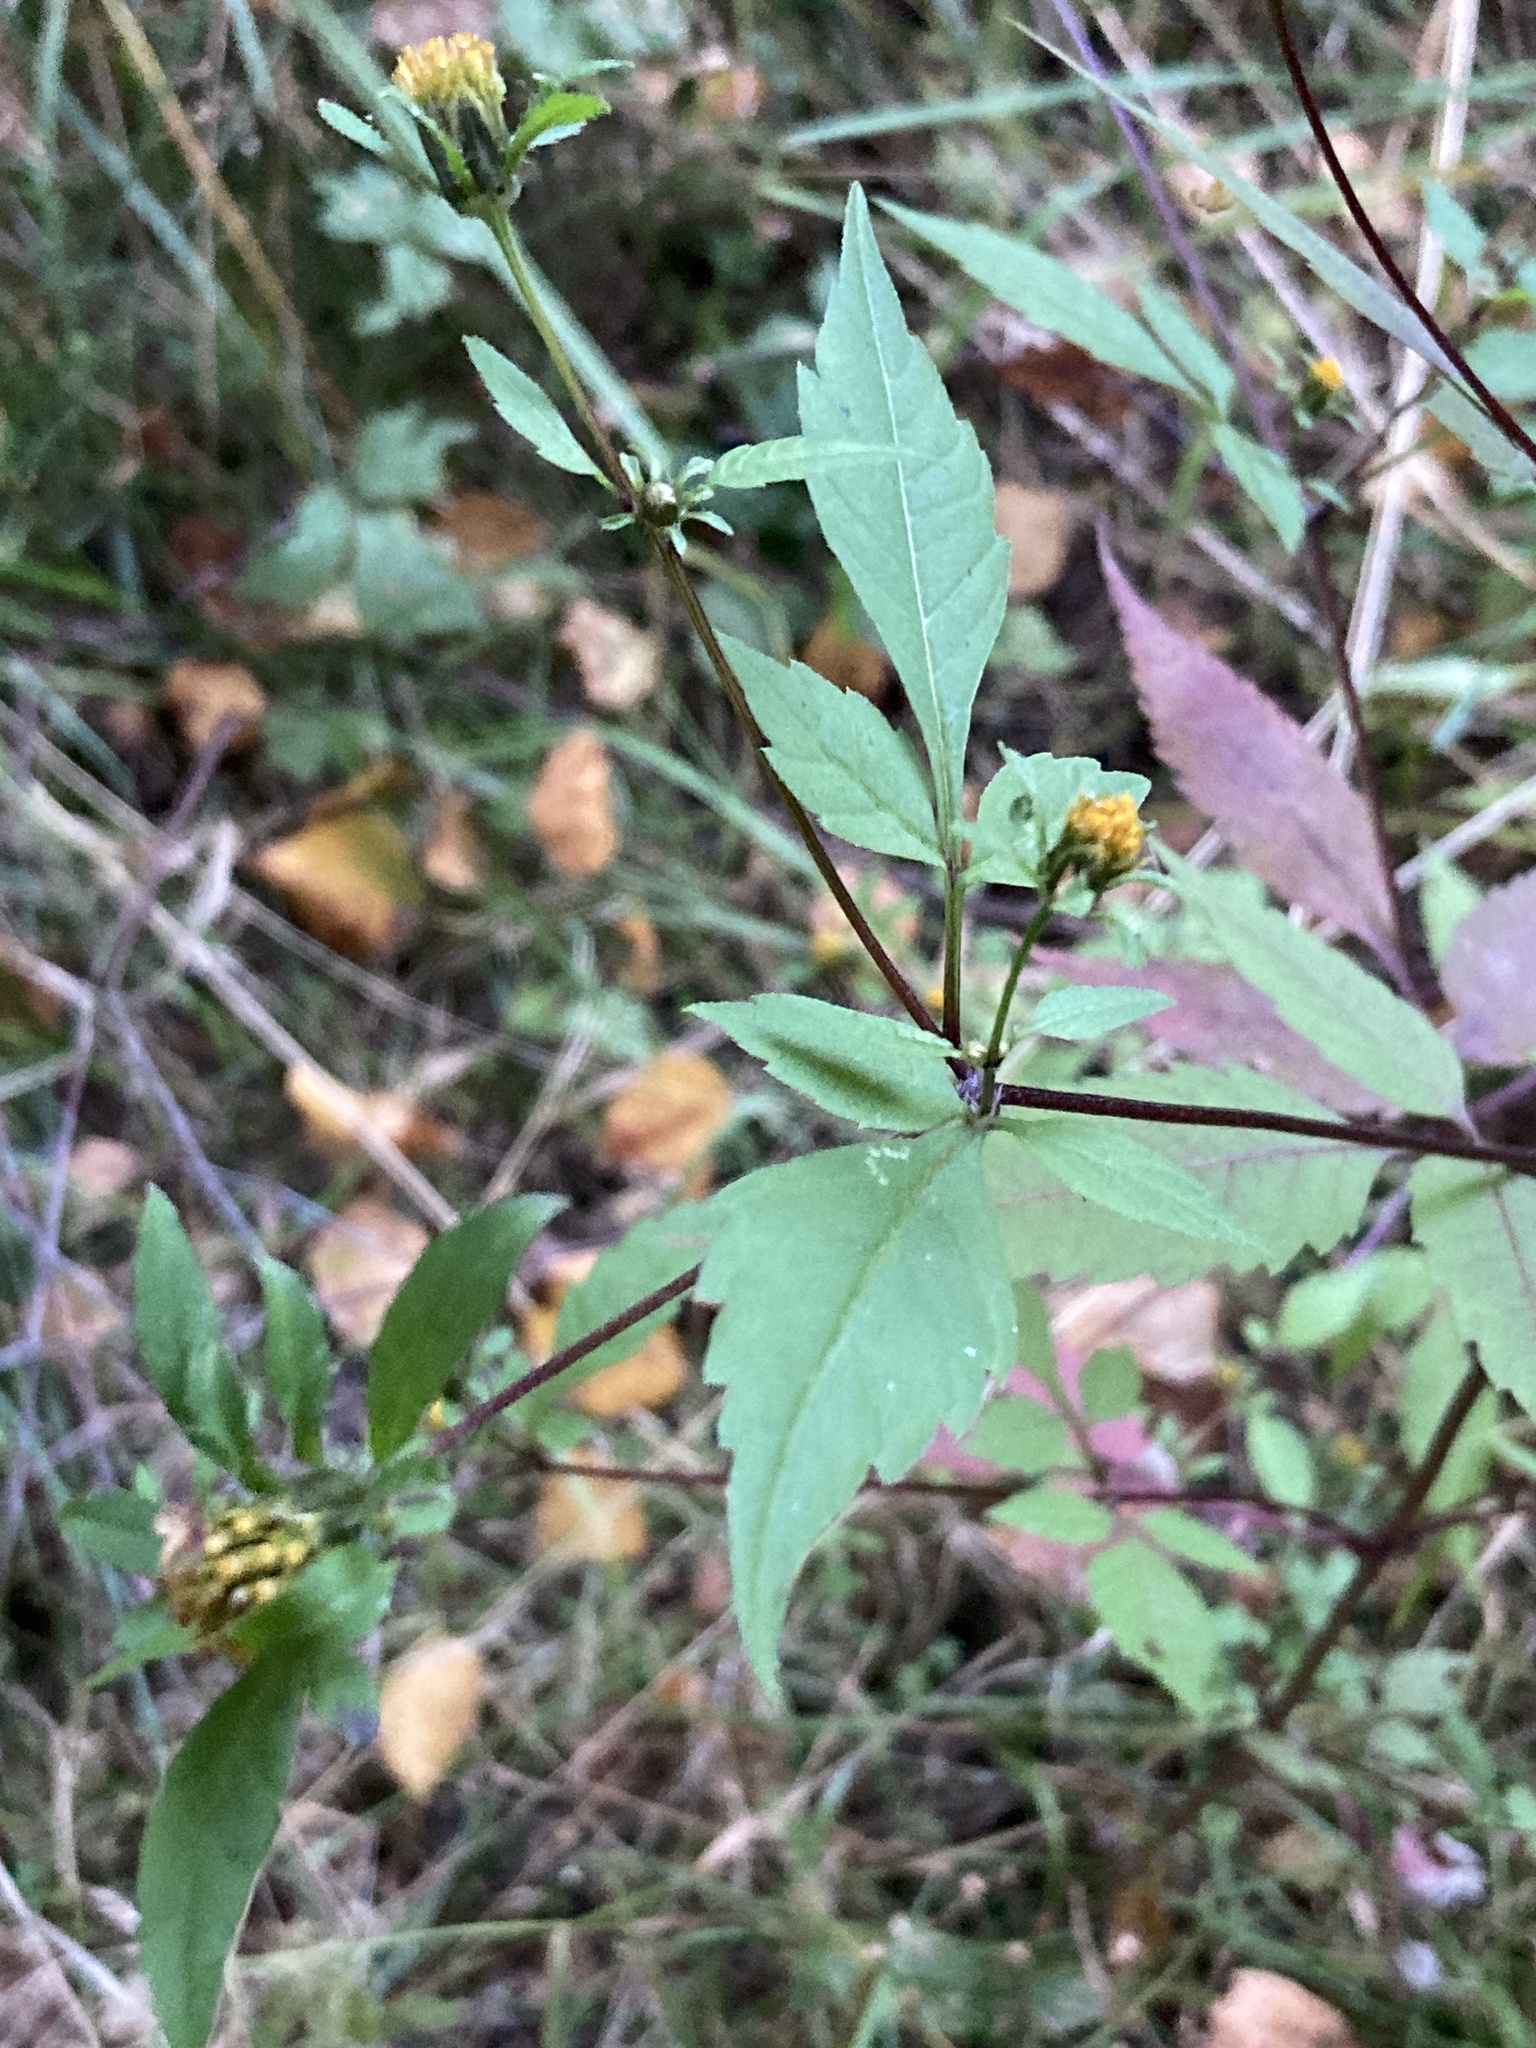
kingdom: Plantae
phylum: Tracheophyta
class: Magnoliopsida
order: Asterales
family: Asteraceae
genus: Bidens
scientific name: Bidens frondosa
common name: Beggarticks
